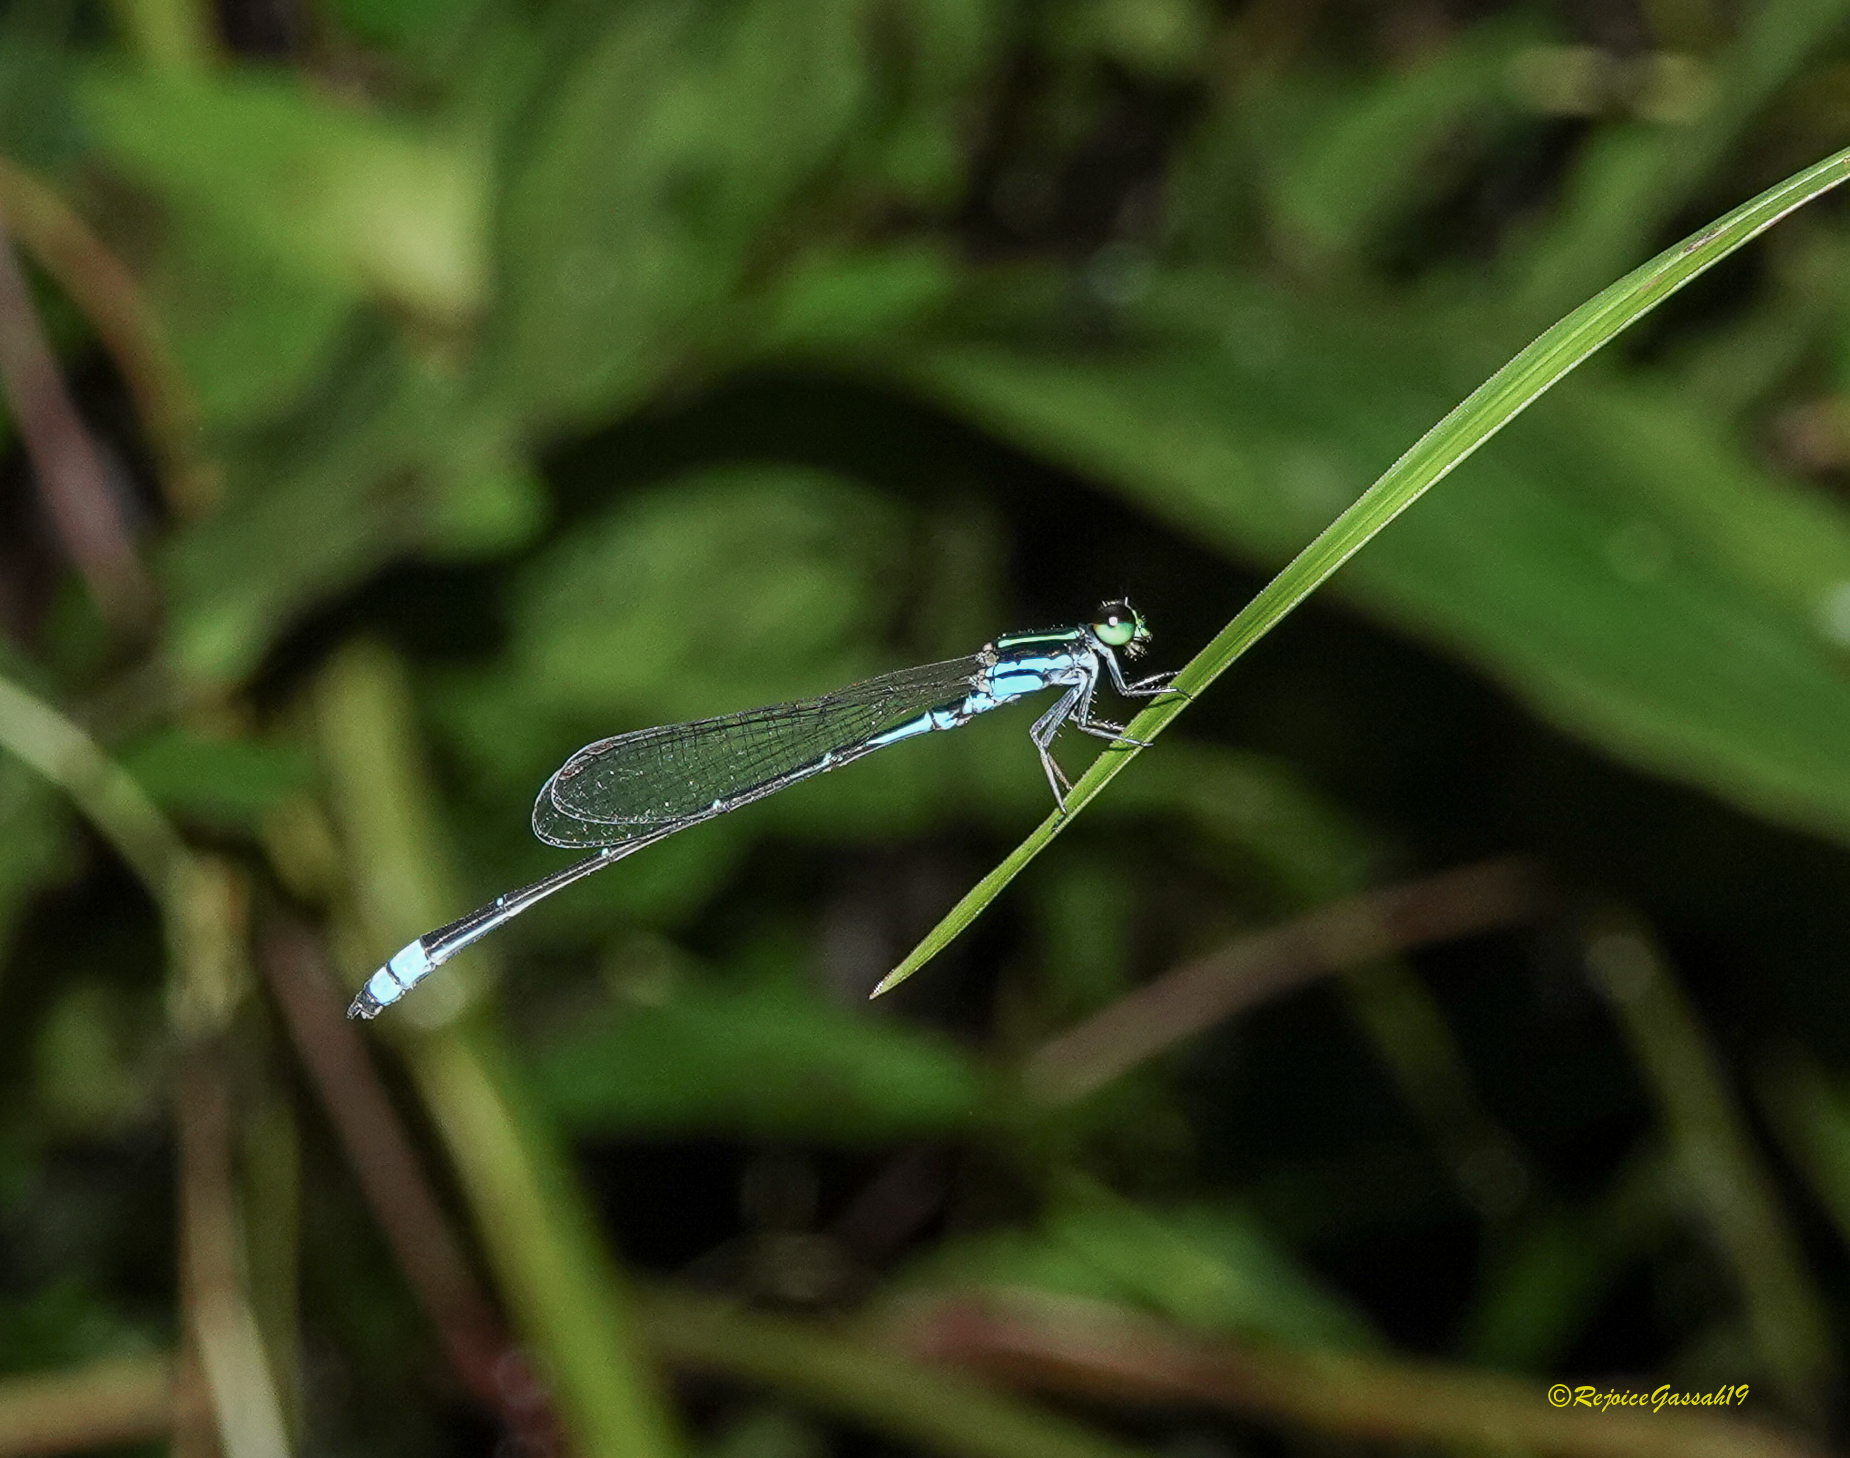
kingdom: Animalia
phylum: Arthropoda
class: Insecta
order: Odonata
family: Coenagrionidae
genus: Mortonagrion
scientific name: Mortonagrion aborense
